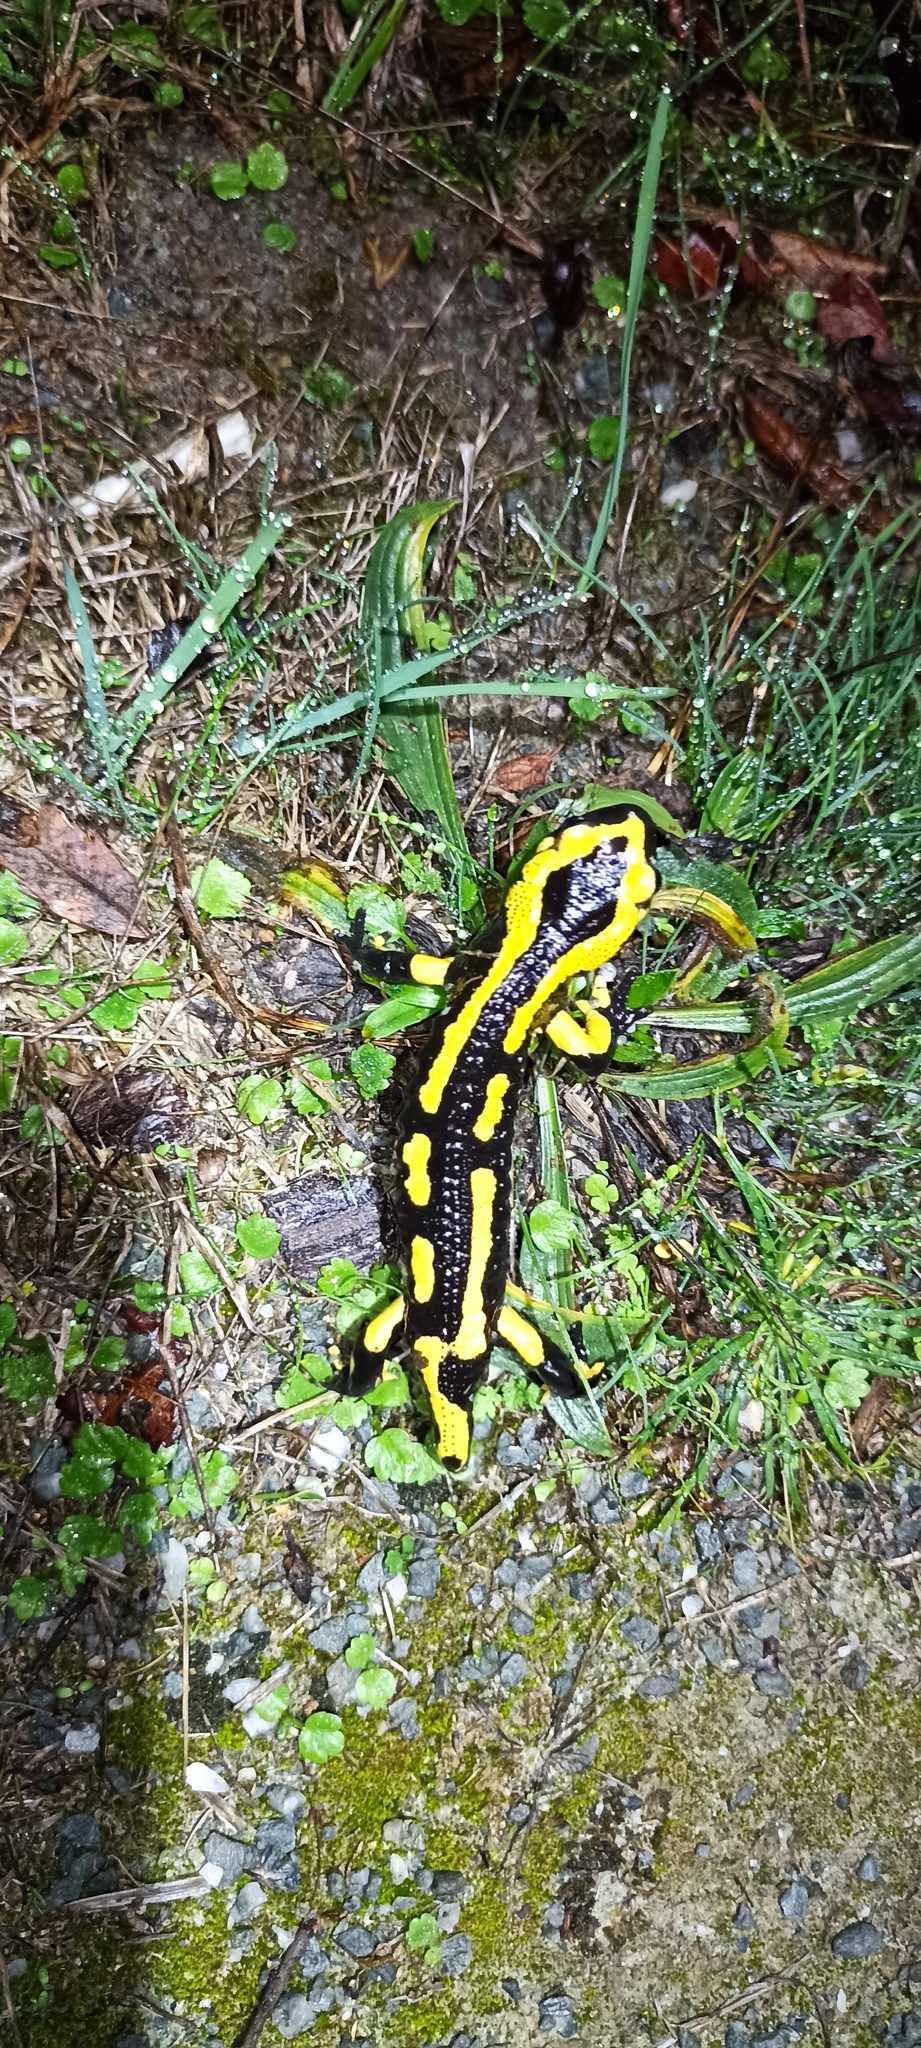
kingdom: Animalia
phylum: Chordata
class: Amphibia
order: Caudata
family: Salamandridae
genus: Salamandra
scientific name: Salamandra salamandra
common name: Fire salamander
